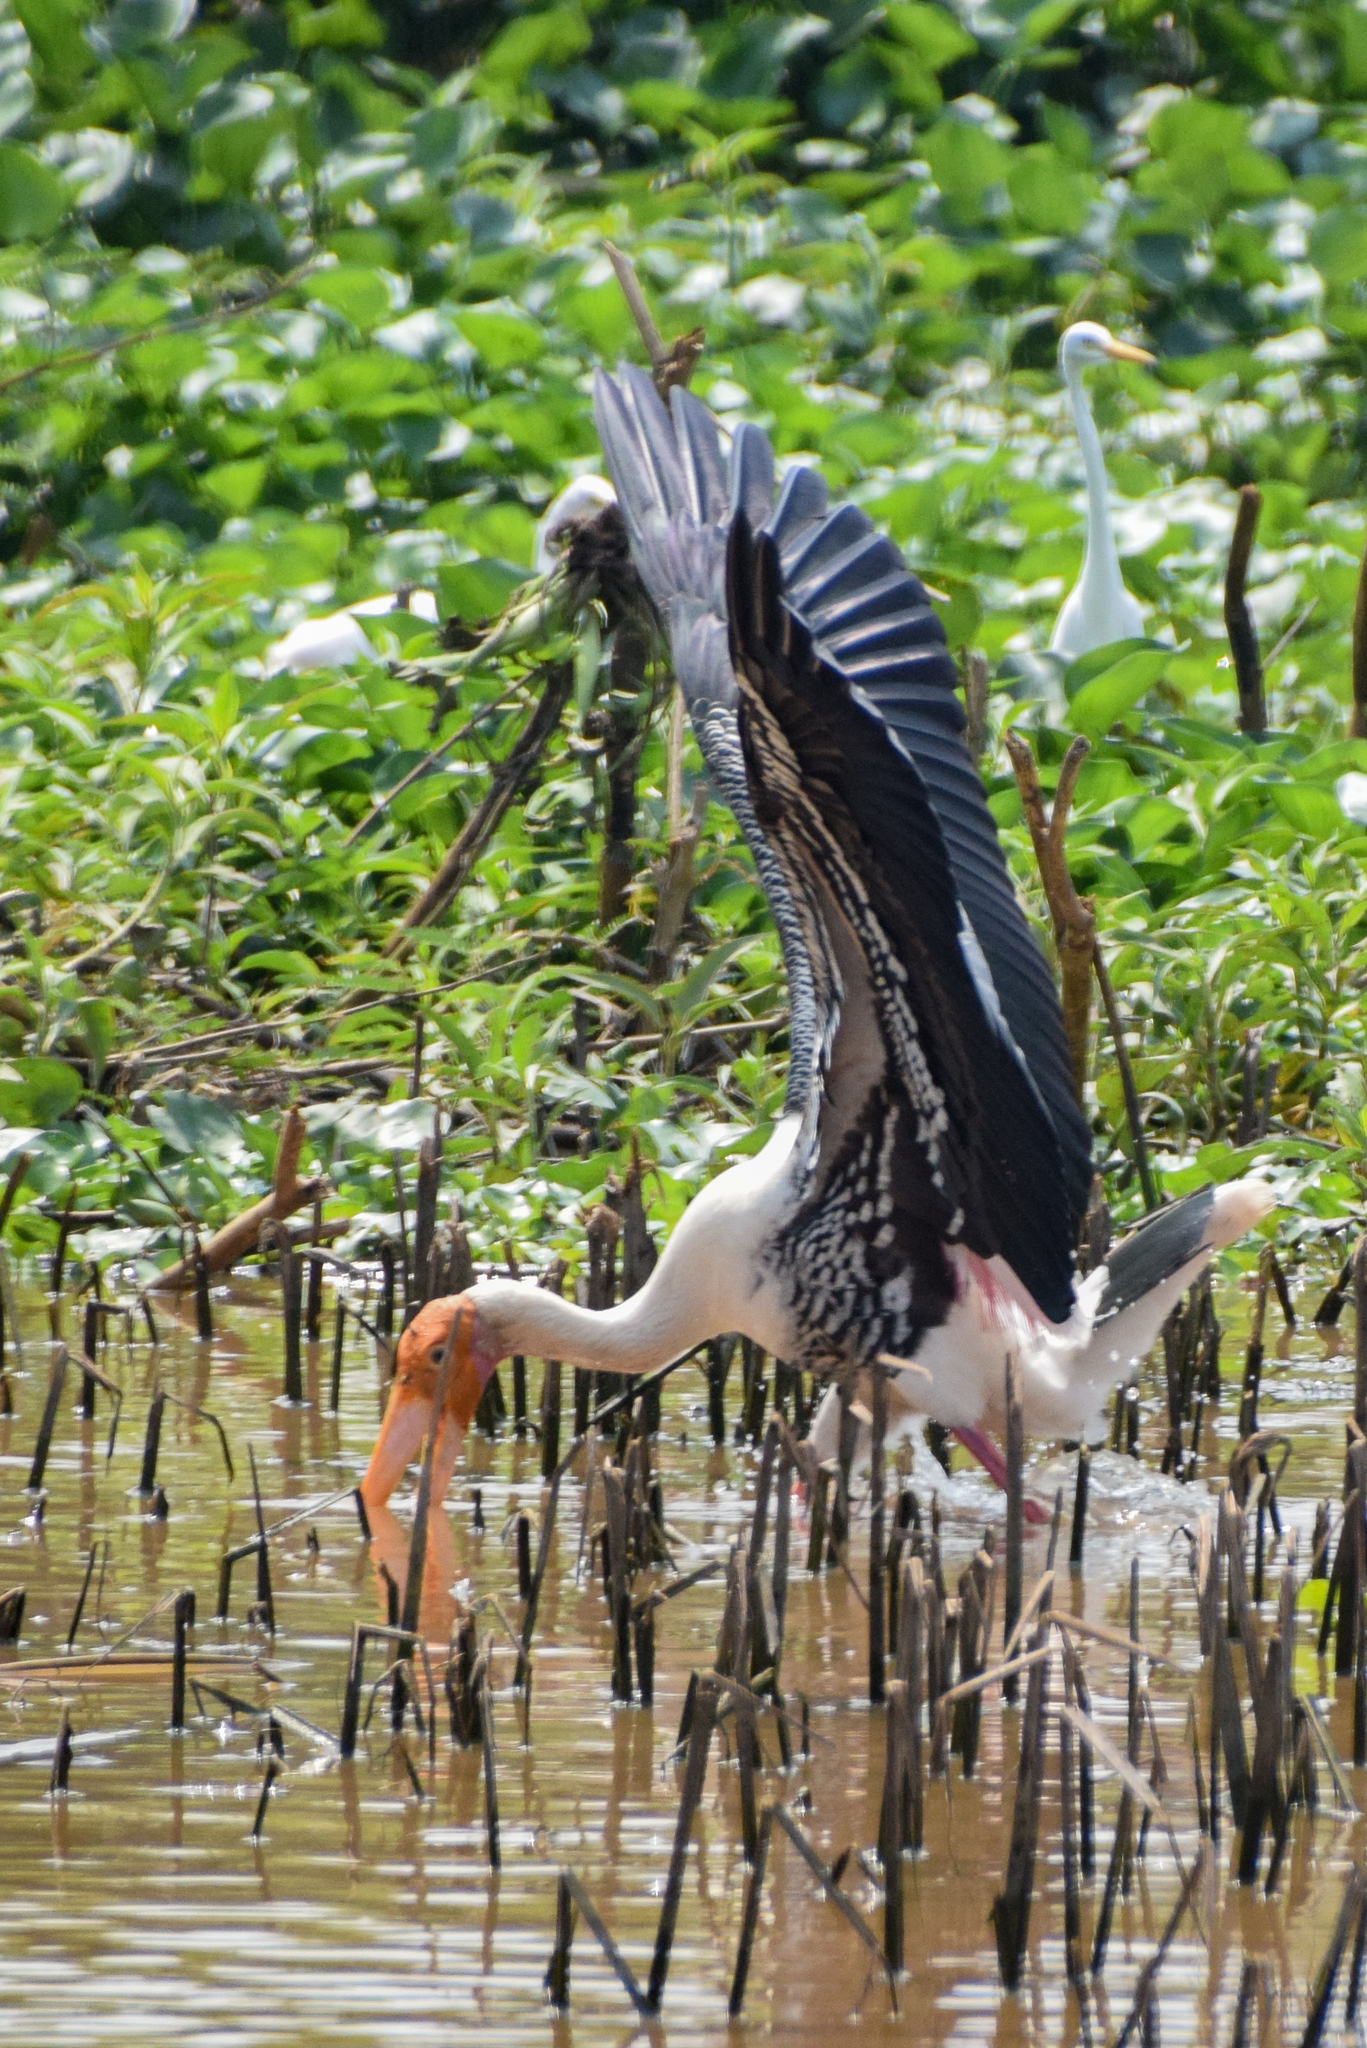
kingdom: Animalia
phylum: Chordata
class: Aves
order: Ciconiiformes
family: Ciconiidae
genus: Mycteria
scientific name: Mycteria leucocephala
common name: Painted stork
